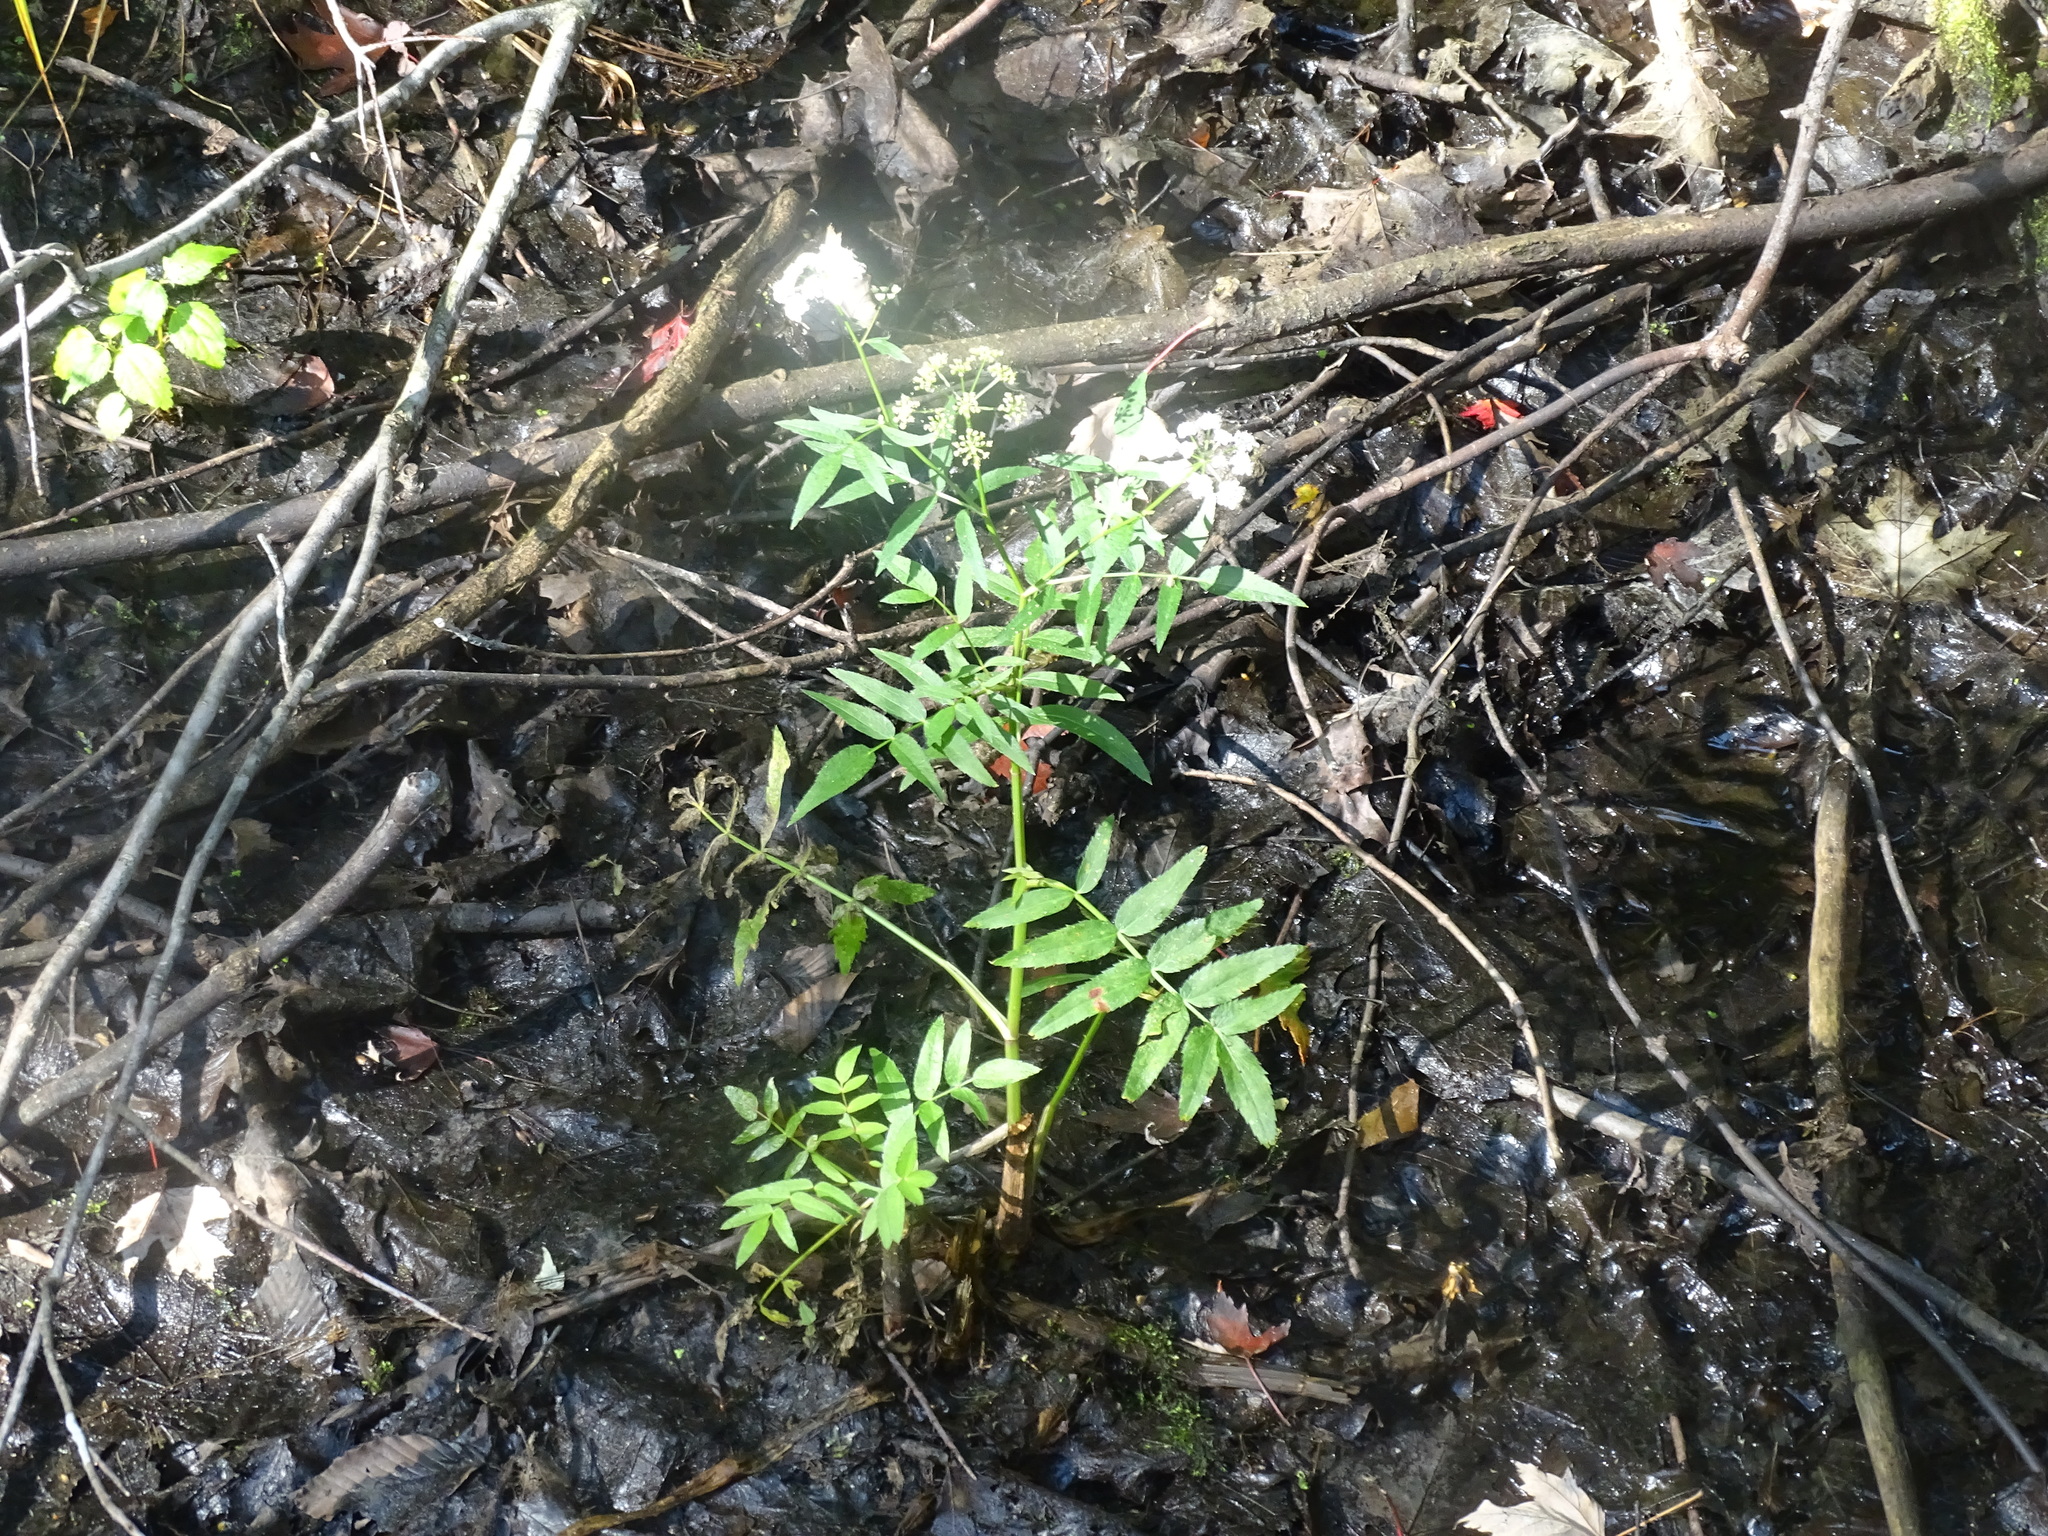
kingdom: Plantae
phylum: Tracheophyta
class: Magnoliopsida
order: Apiales
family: Apiaceae
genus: Sium
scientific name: Sium suave
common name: Hemlock water-parsnip
